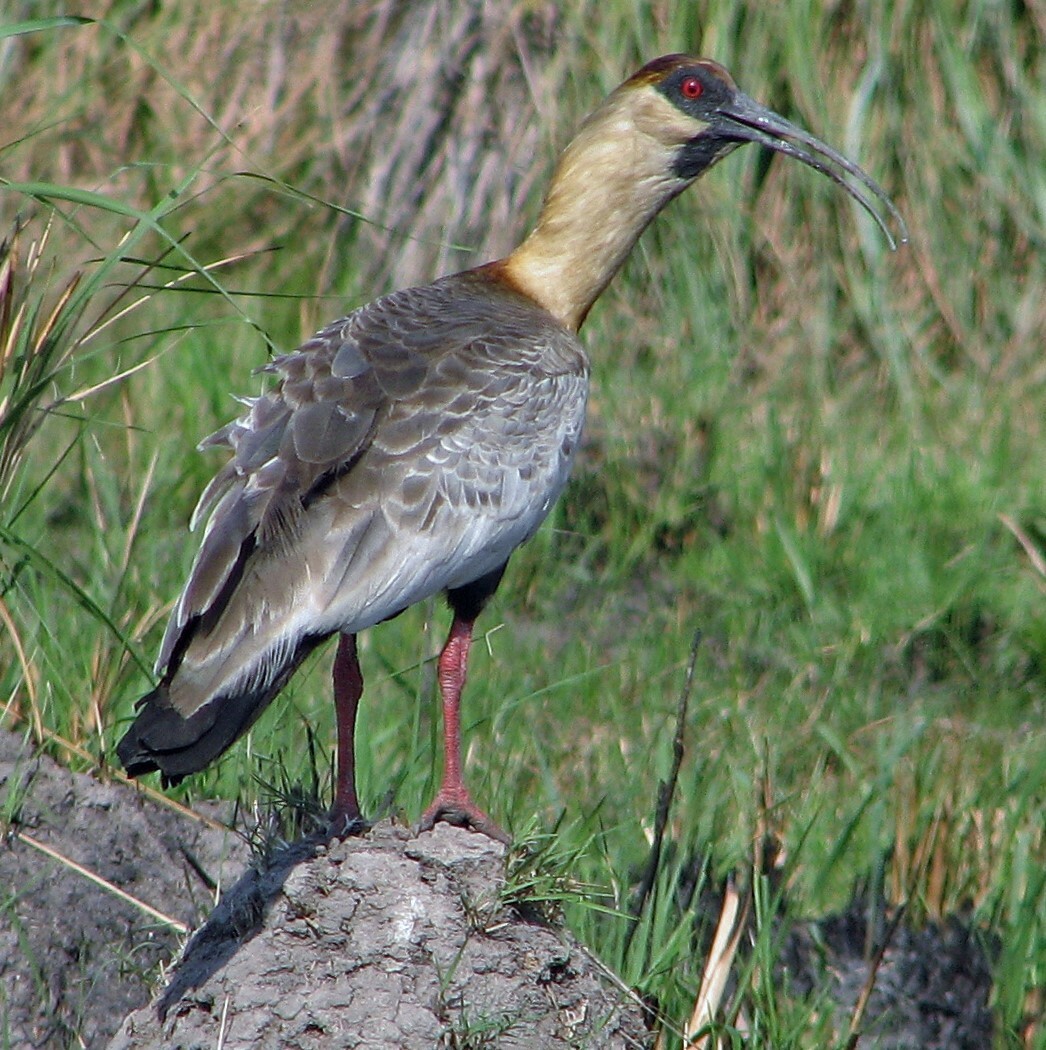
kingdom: Animalia
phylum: Chordata
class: Aves
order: Pelecaniformes
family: Threskiornithidae
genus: Theristicus
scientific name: Theristicus caudatus
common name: Buff-necked ibis
